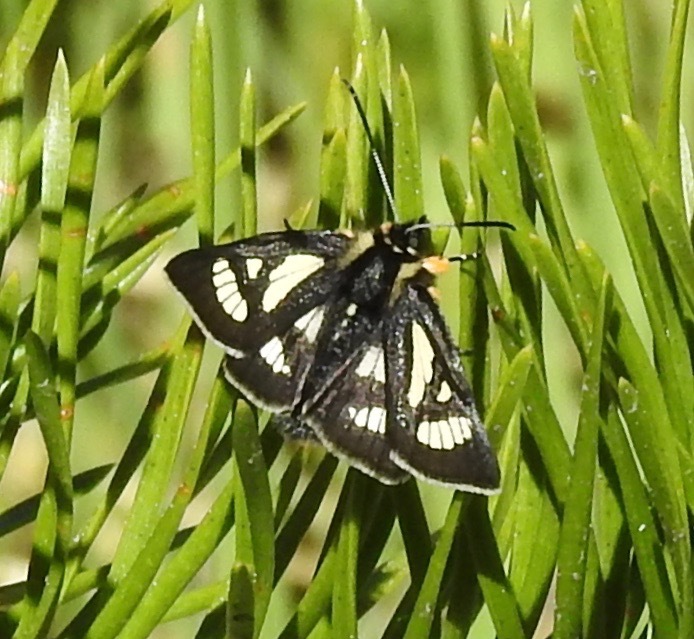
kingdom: Animalia
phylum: Arthropoda
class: Insecta
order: Lepidoptera
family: Noctuidae
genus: Alypia
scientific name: Alypia maccullochii
